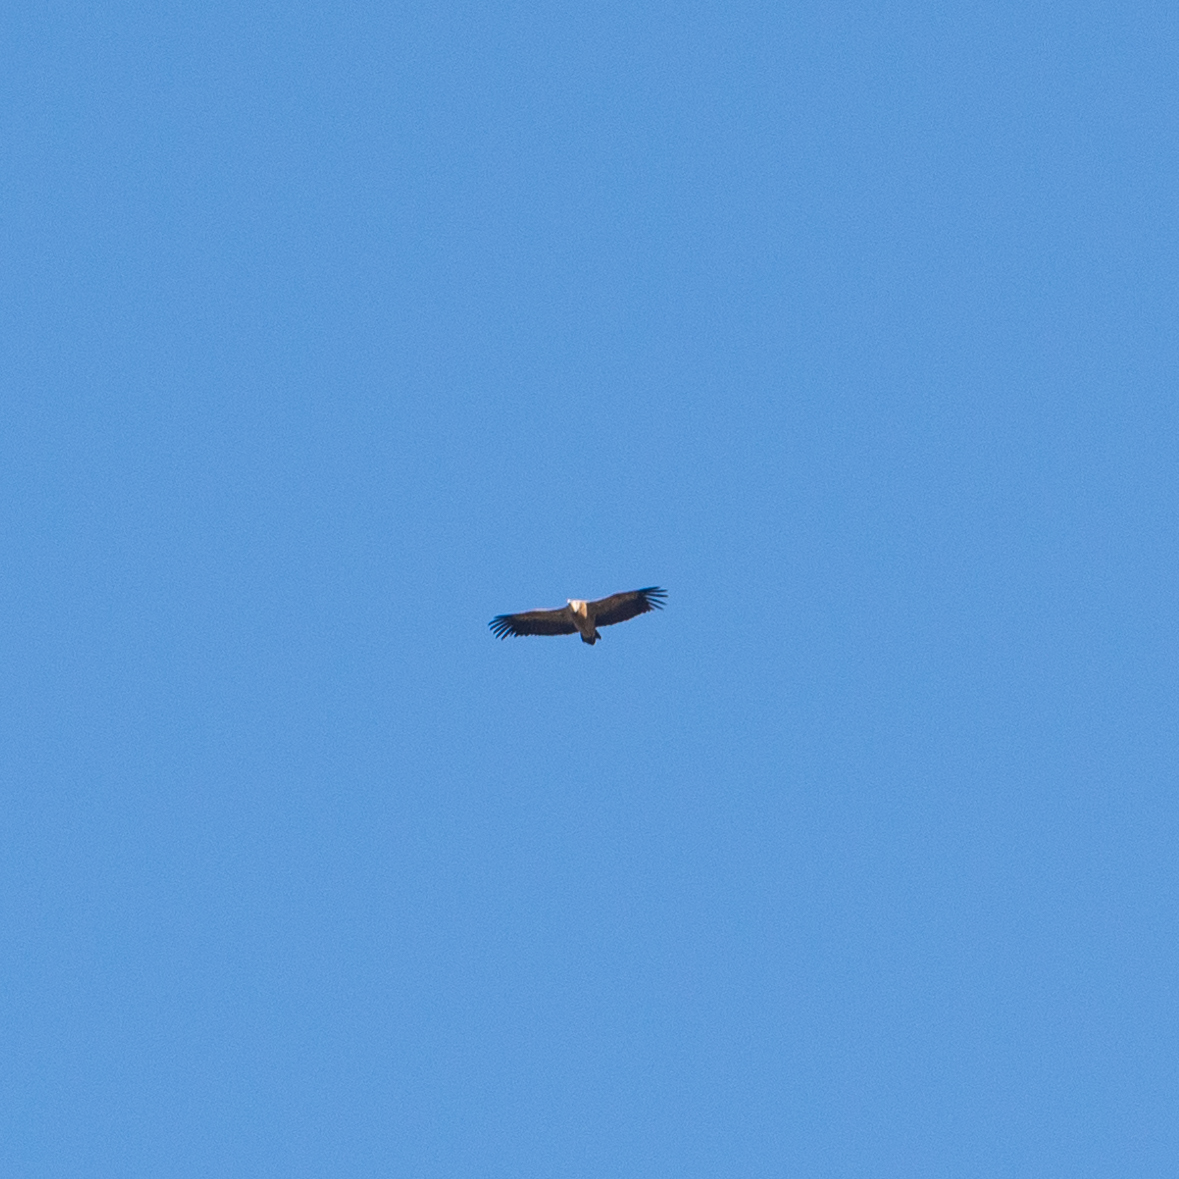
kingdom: Animalia
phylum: Chordata
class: Aves
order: Accipitriformes
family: Accipitridae
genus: Gyps
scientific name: Gyps fulvus
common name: Griffon vulture
